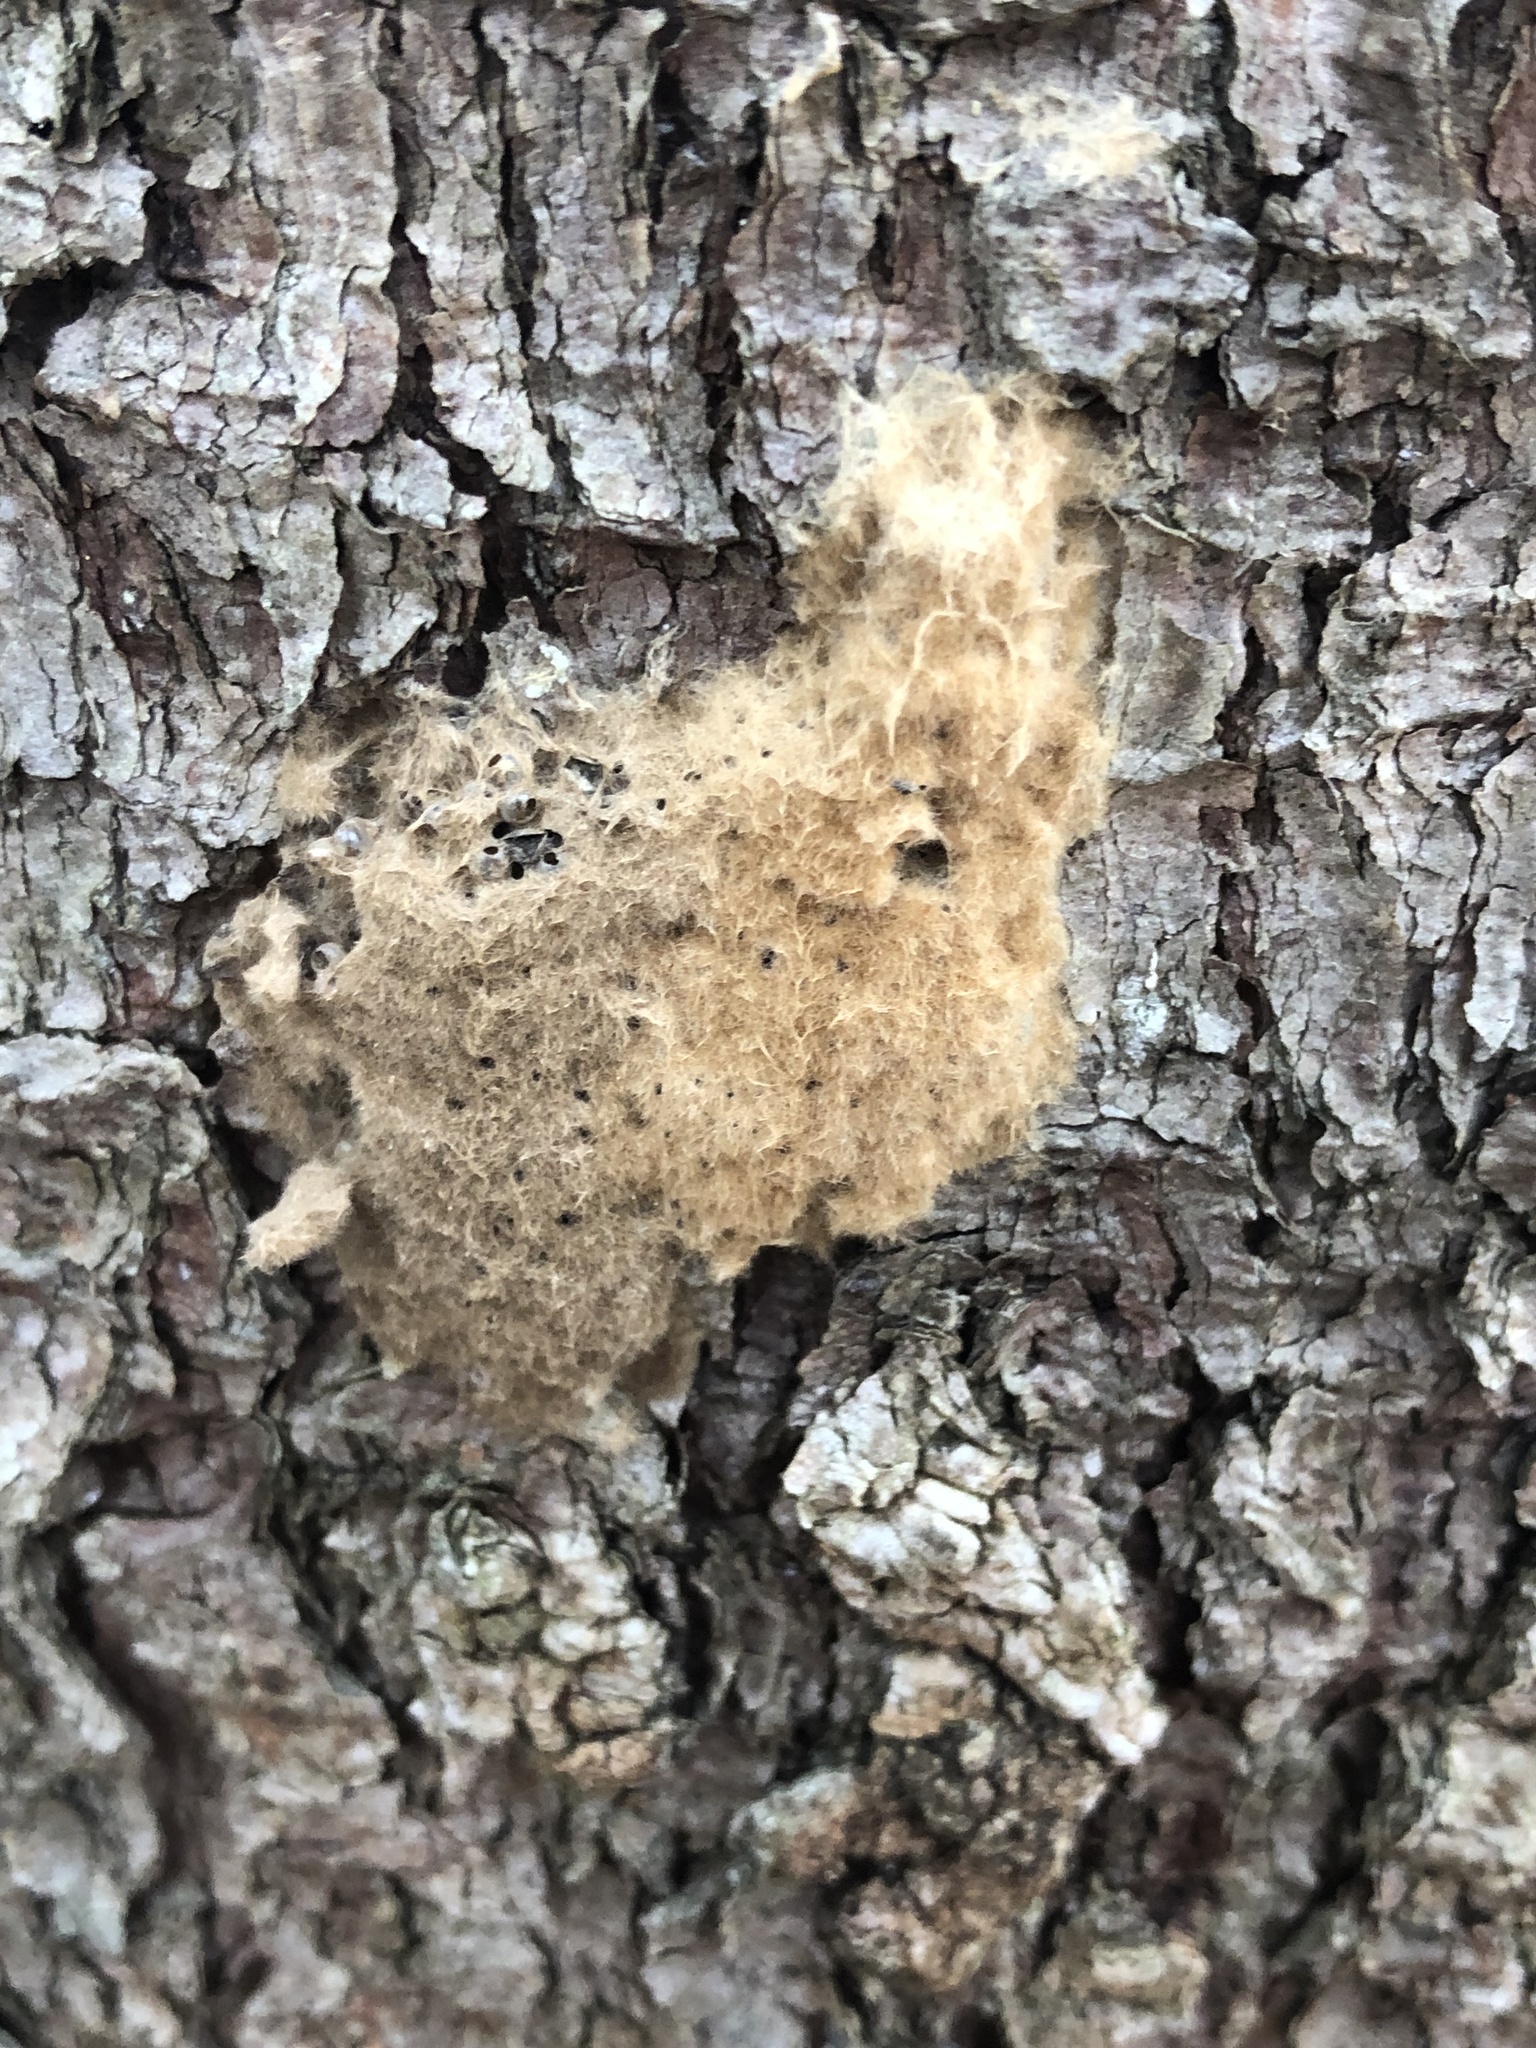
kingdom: Animalia
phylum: Arthropoda
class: Insecta
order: Lepidoptera
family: Erebidae
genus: Lymantria
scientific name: Lymantria dispar
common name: Gypsy moth
